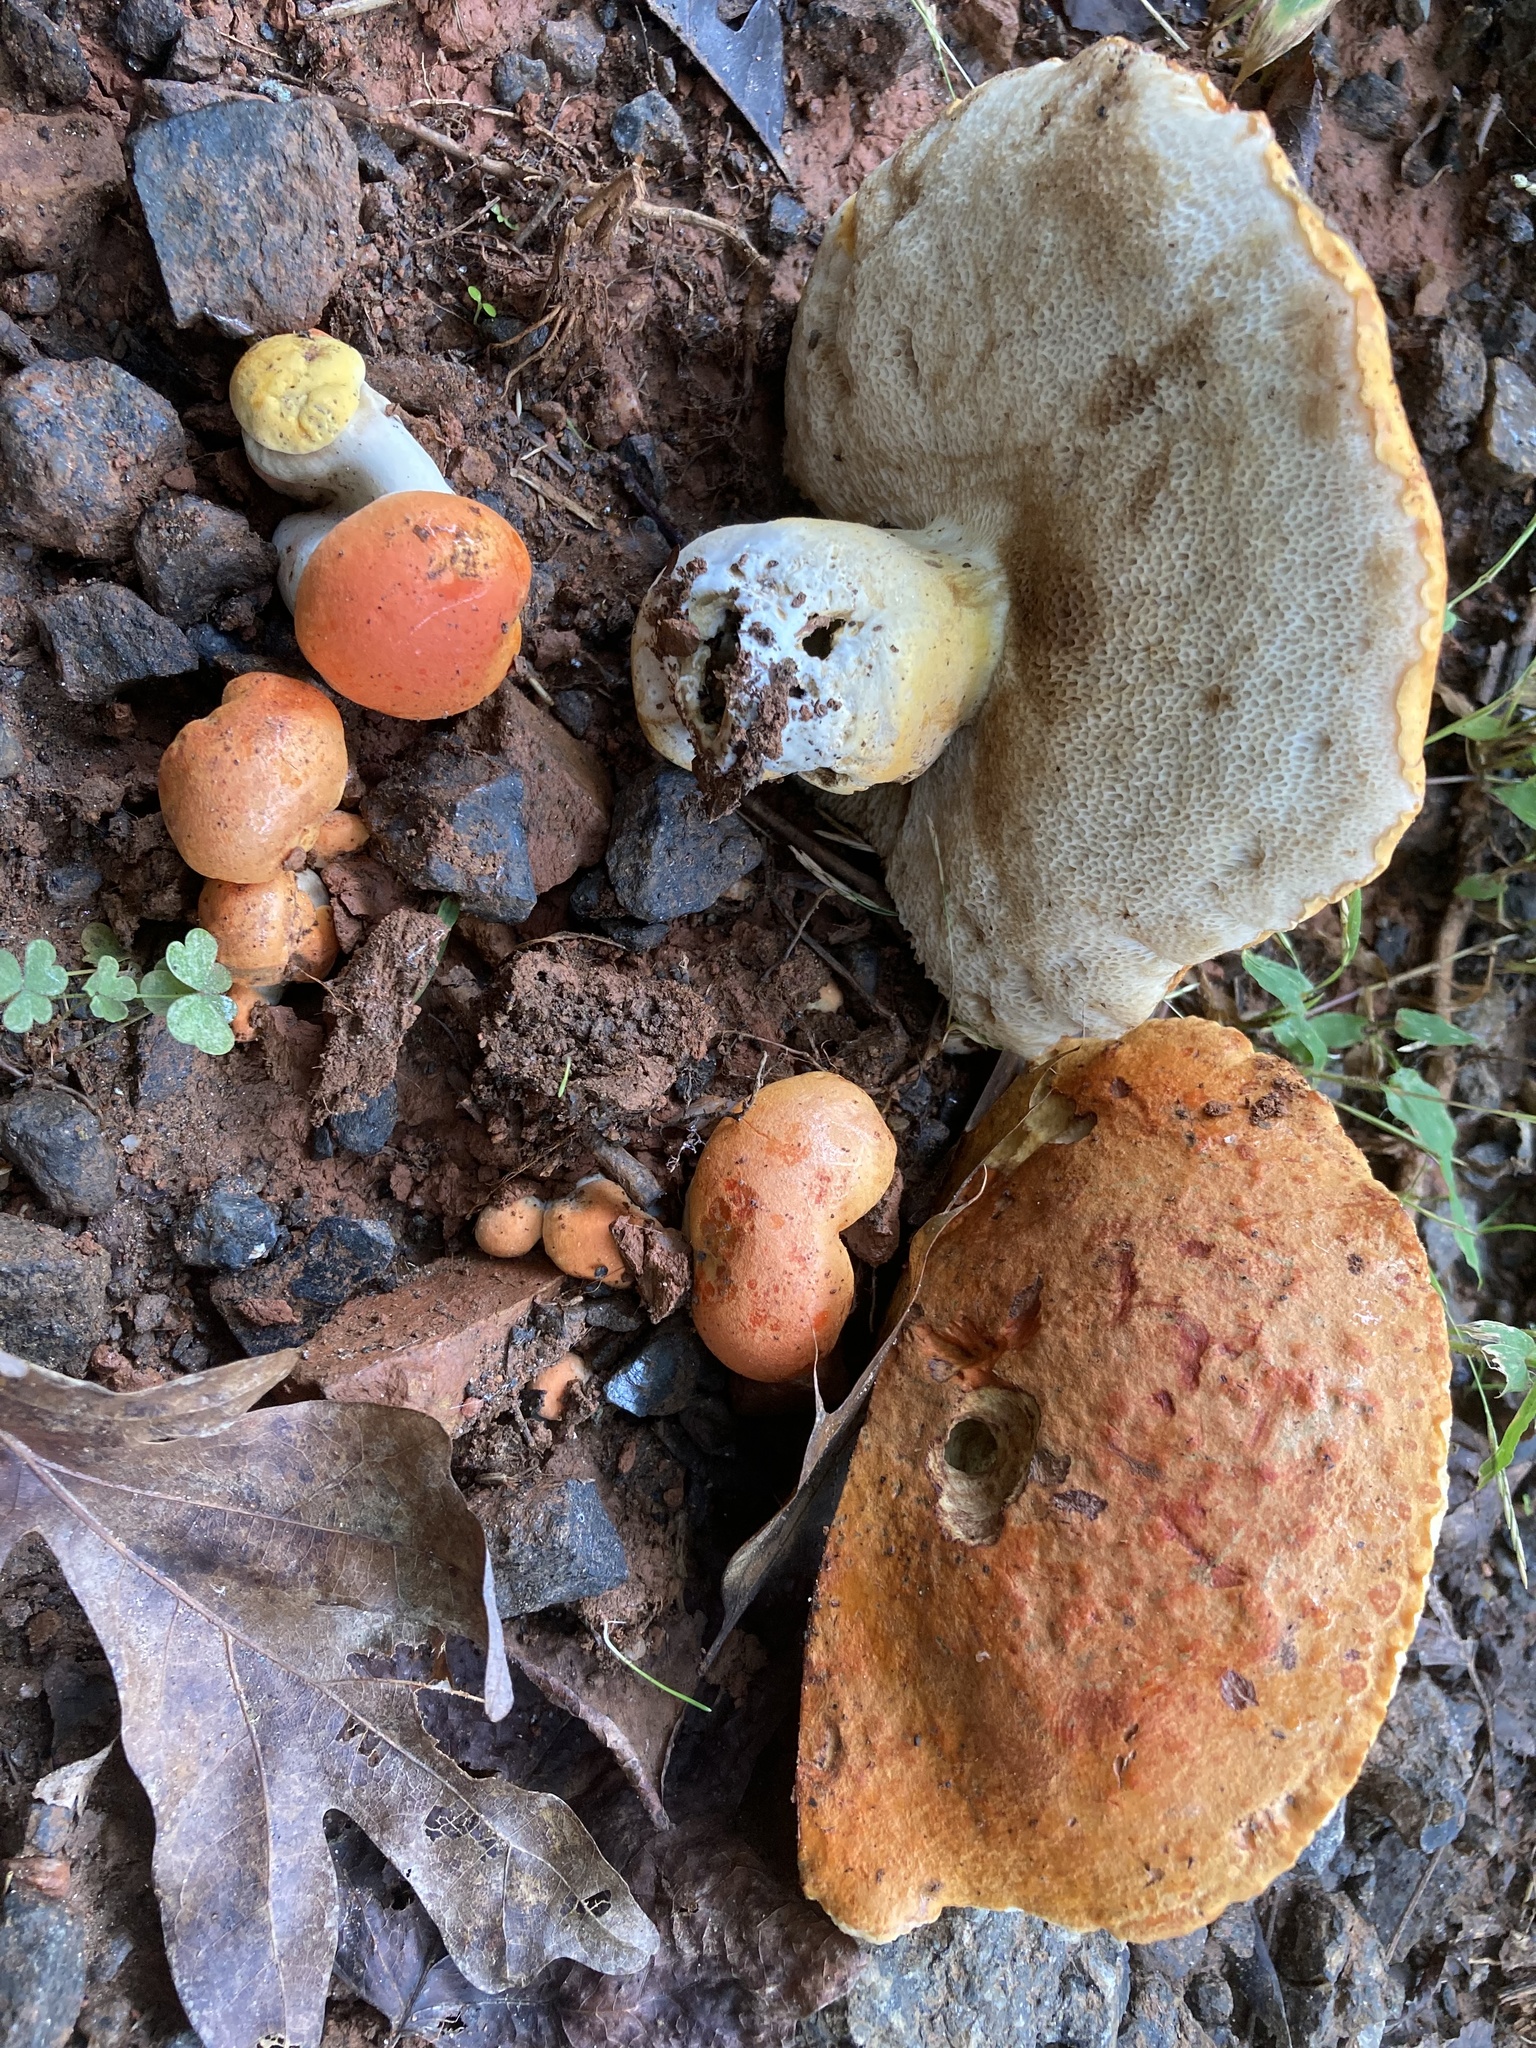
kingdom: Fungi
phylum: Basidiomycota
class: Agaricomycetes
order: Boletales
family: Boletaceae
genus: Tylopilus
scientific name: Tylopilus balloui
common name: Burnt-orange bolete
